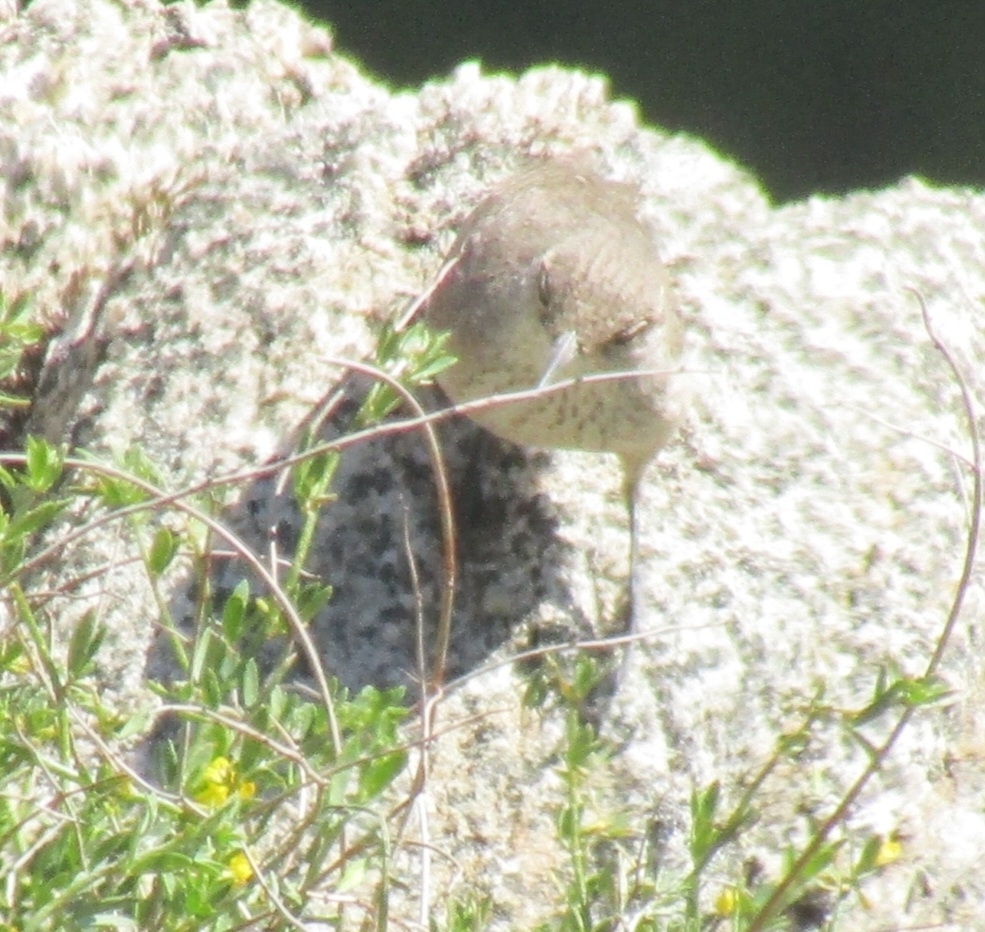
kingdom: Animalia
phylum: Chordata
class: Aves
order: Passeriformes
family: Troglodytidae
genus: Salpinctes
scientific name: Salpinctes obsoletus
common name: Rock wren
